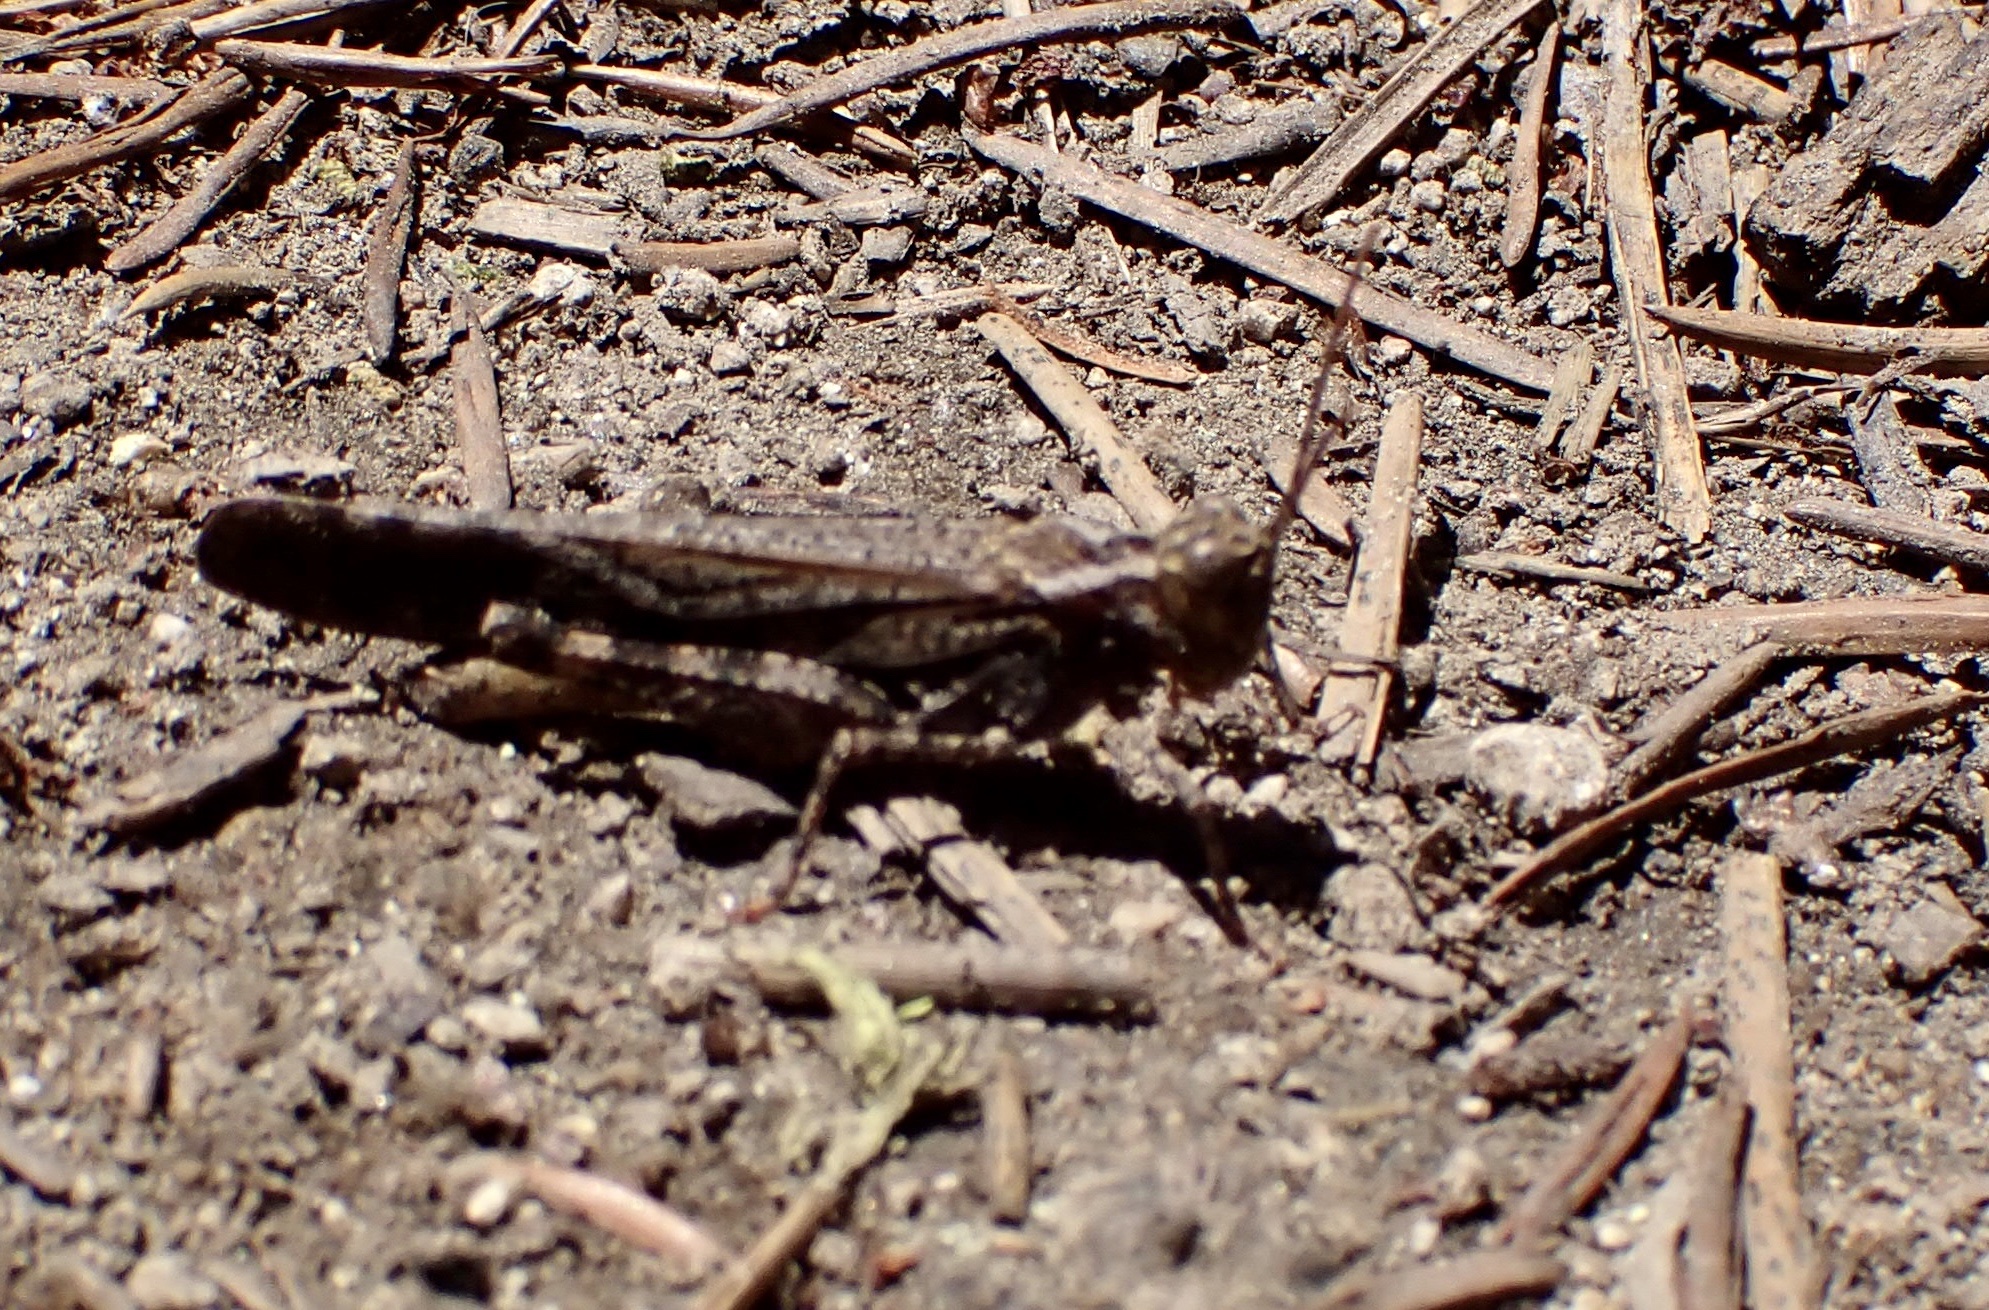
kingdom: Animalia
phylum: Arthropoda
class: Insecta
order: Orthoptera
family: Acrididae
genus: Trimerotropis
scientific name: Trimerotropis verruculata
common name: Crackling forest grasshopper
